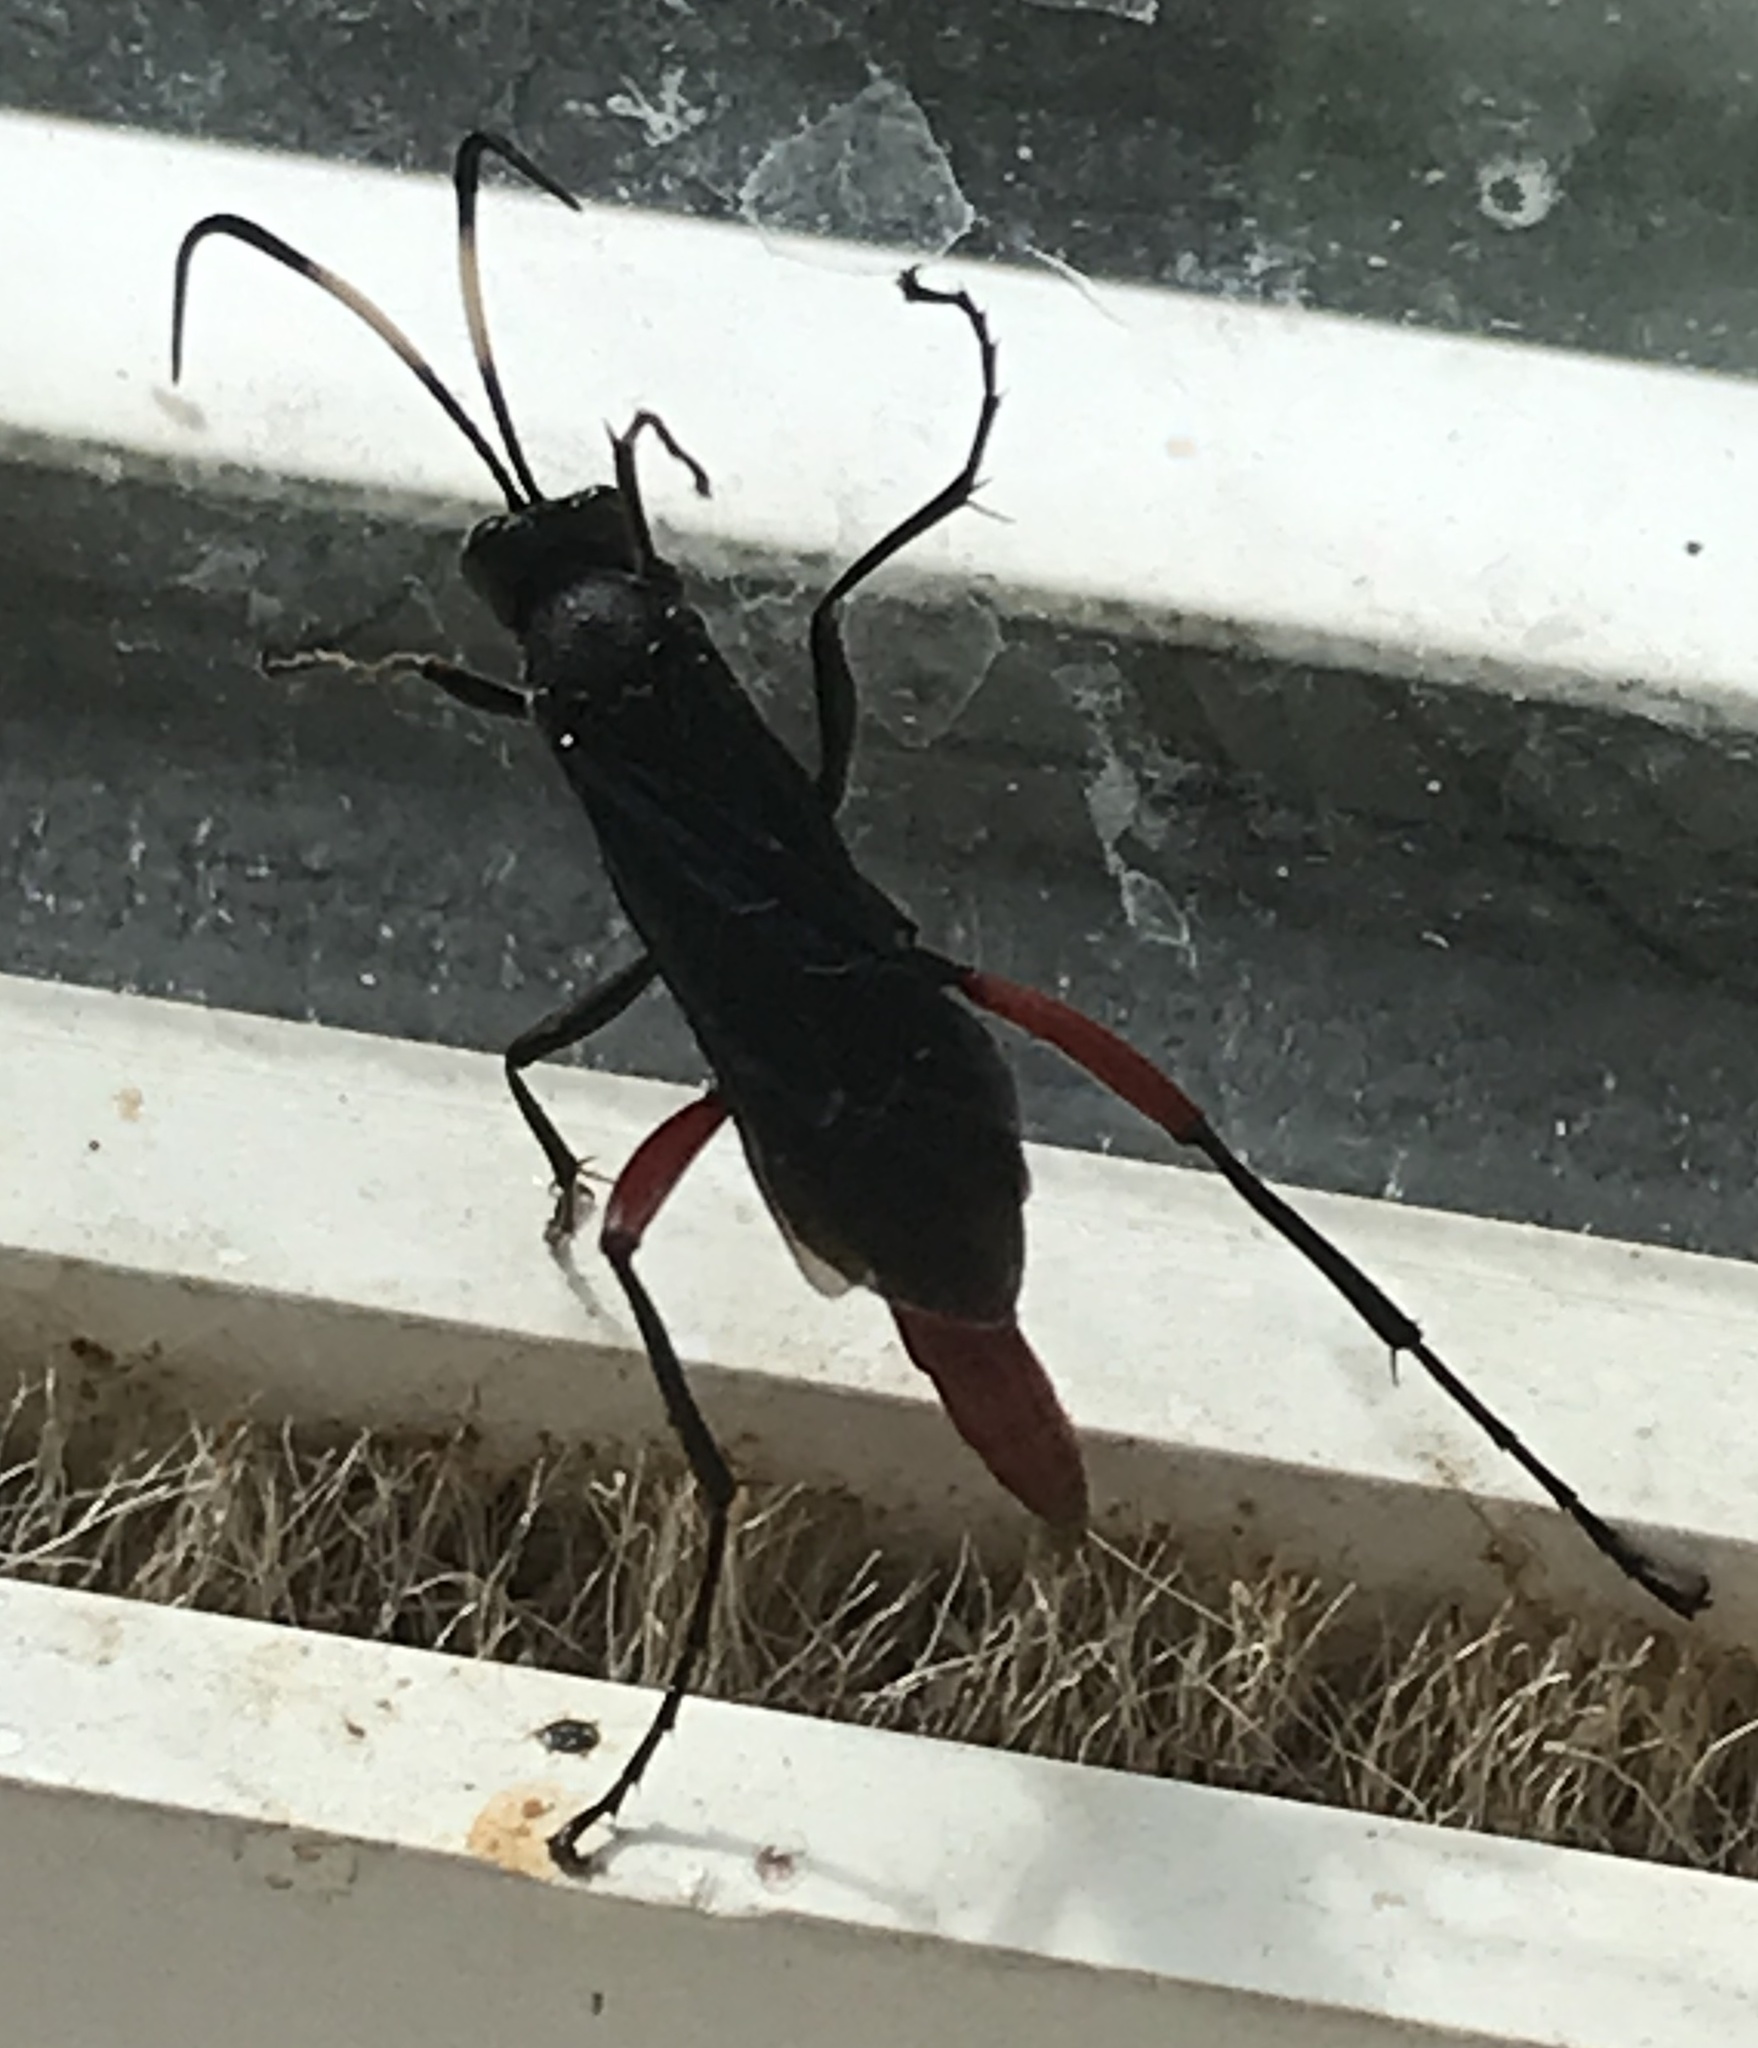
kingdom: Animalia
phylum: Arthropoda
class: Insecta
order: Hymenoptera
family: Ichneumonidae
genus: Limonethe
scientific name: Limonethe maurator
